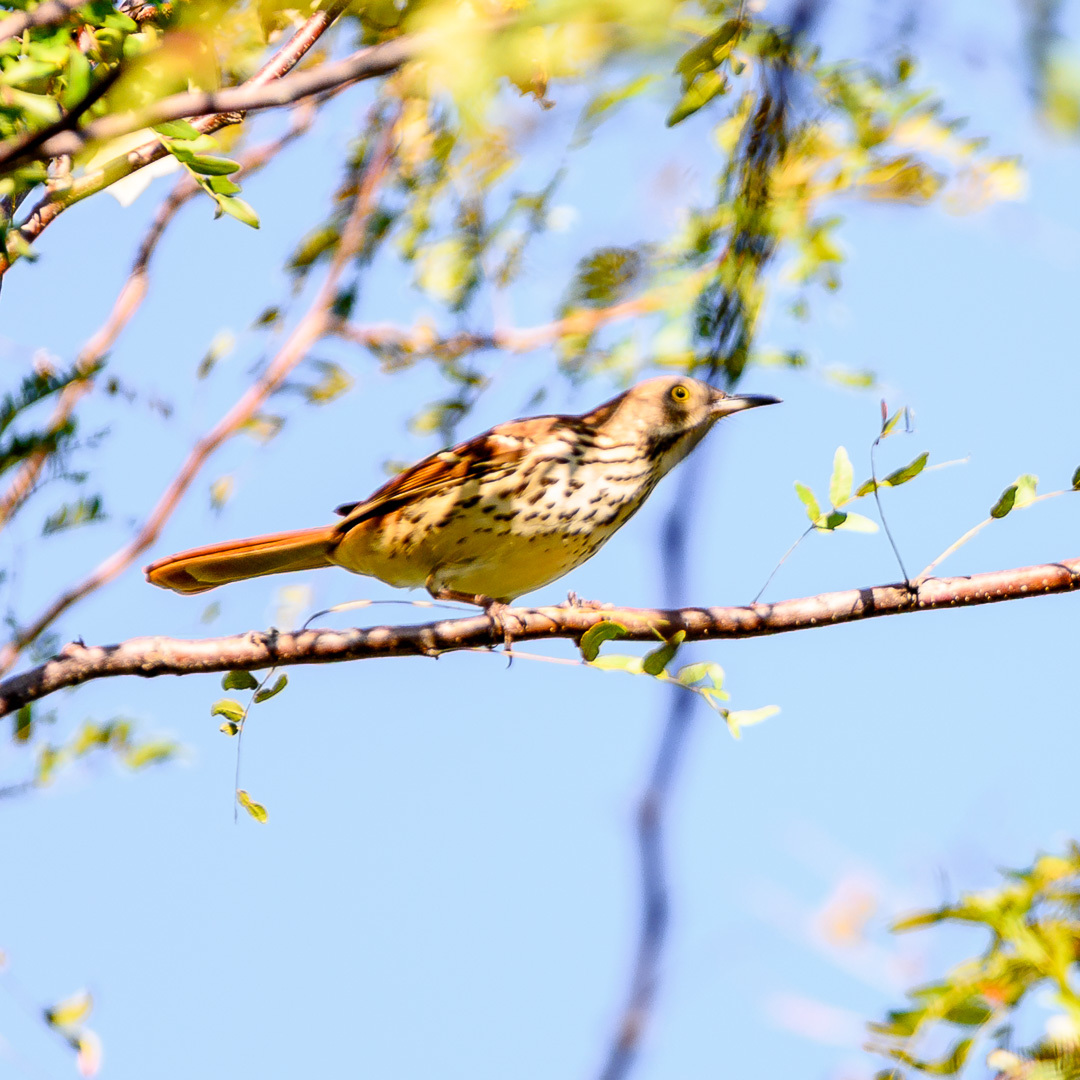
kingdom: Animalia
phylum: Chordata
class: Aves
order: Passeriformes
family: Mimidae
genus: Toxostoma
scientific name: Toxostoma rufum
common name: Brown thrasher
